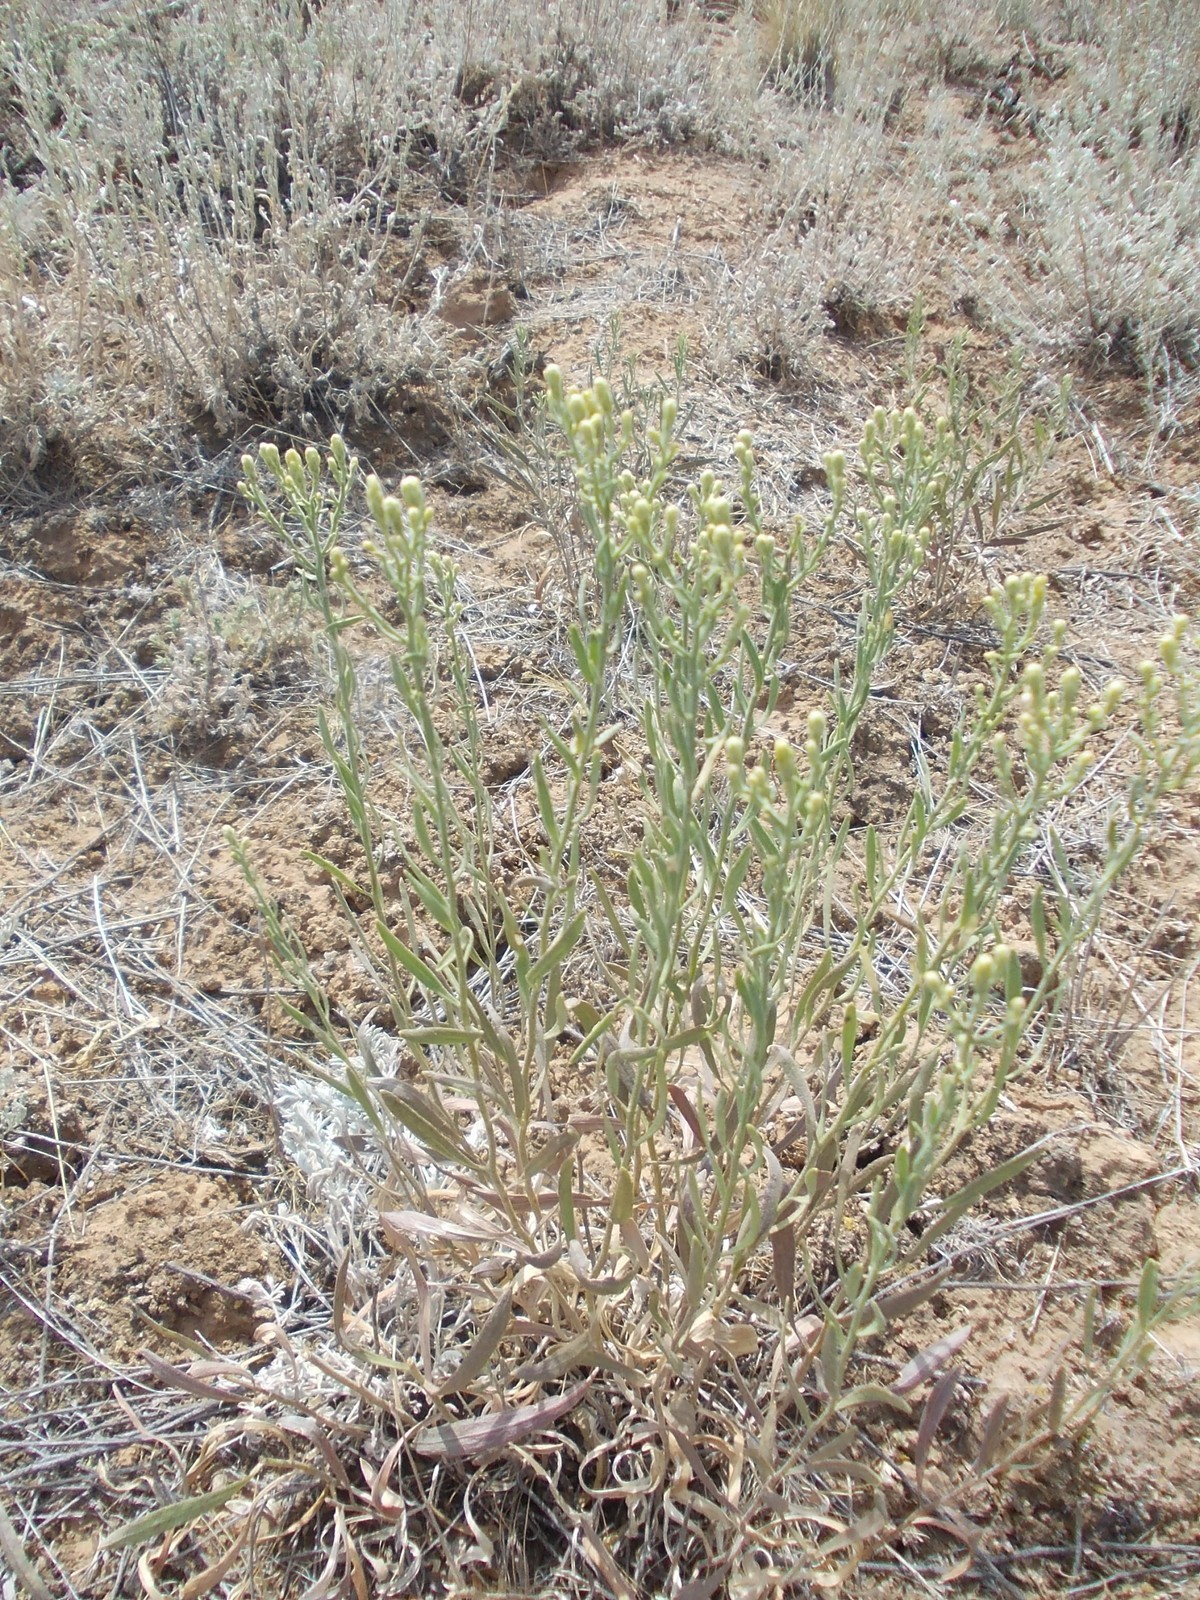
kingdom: Plantae
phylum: Tracheophyta
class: Magnoliopsida
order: Asterales
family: Asteraceae
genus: Galatella
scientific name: Galatella sedifolia
